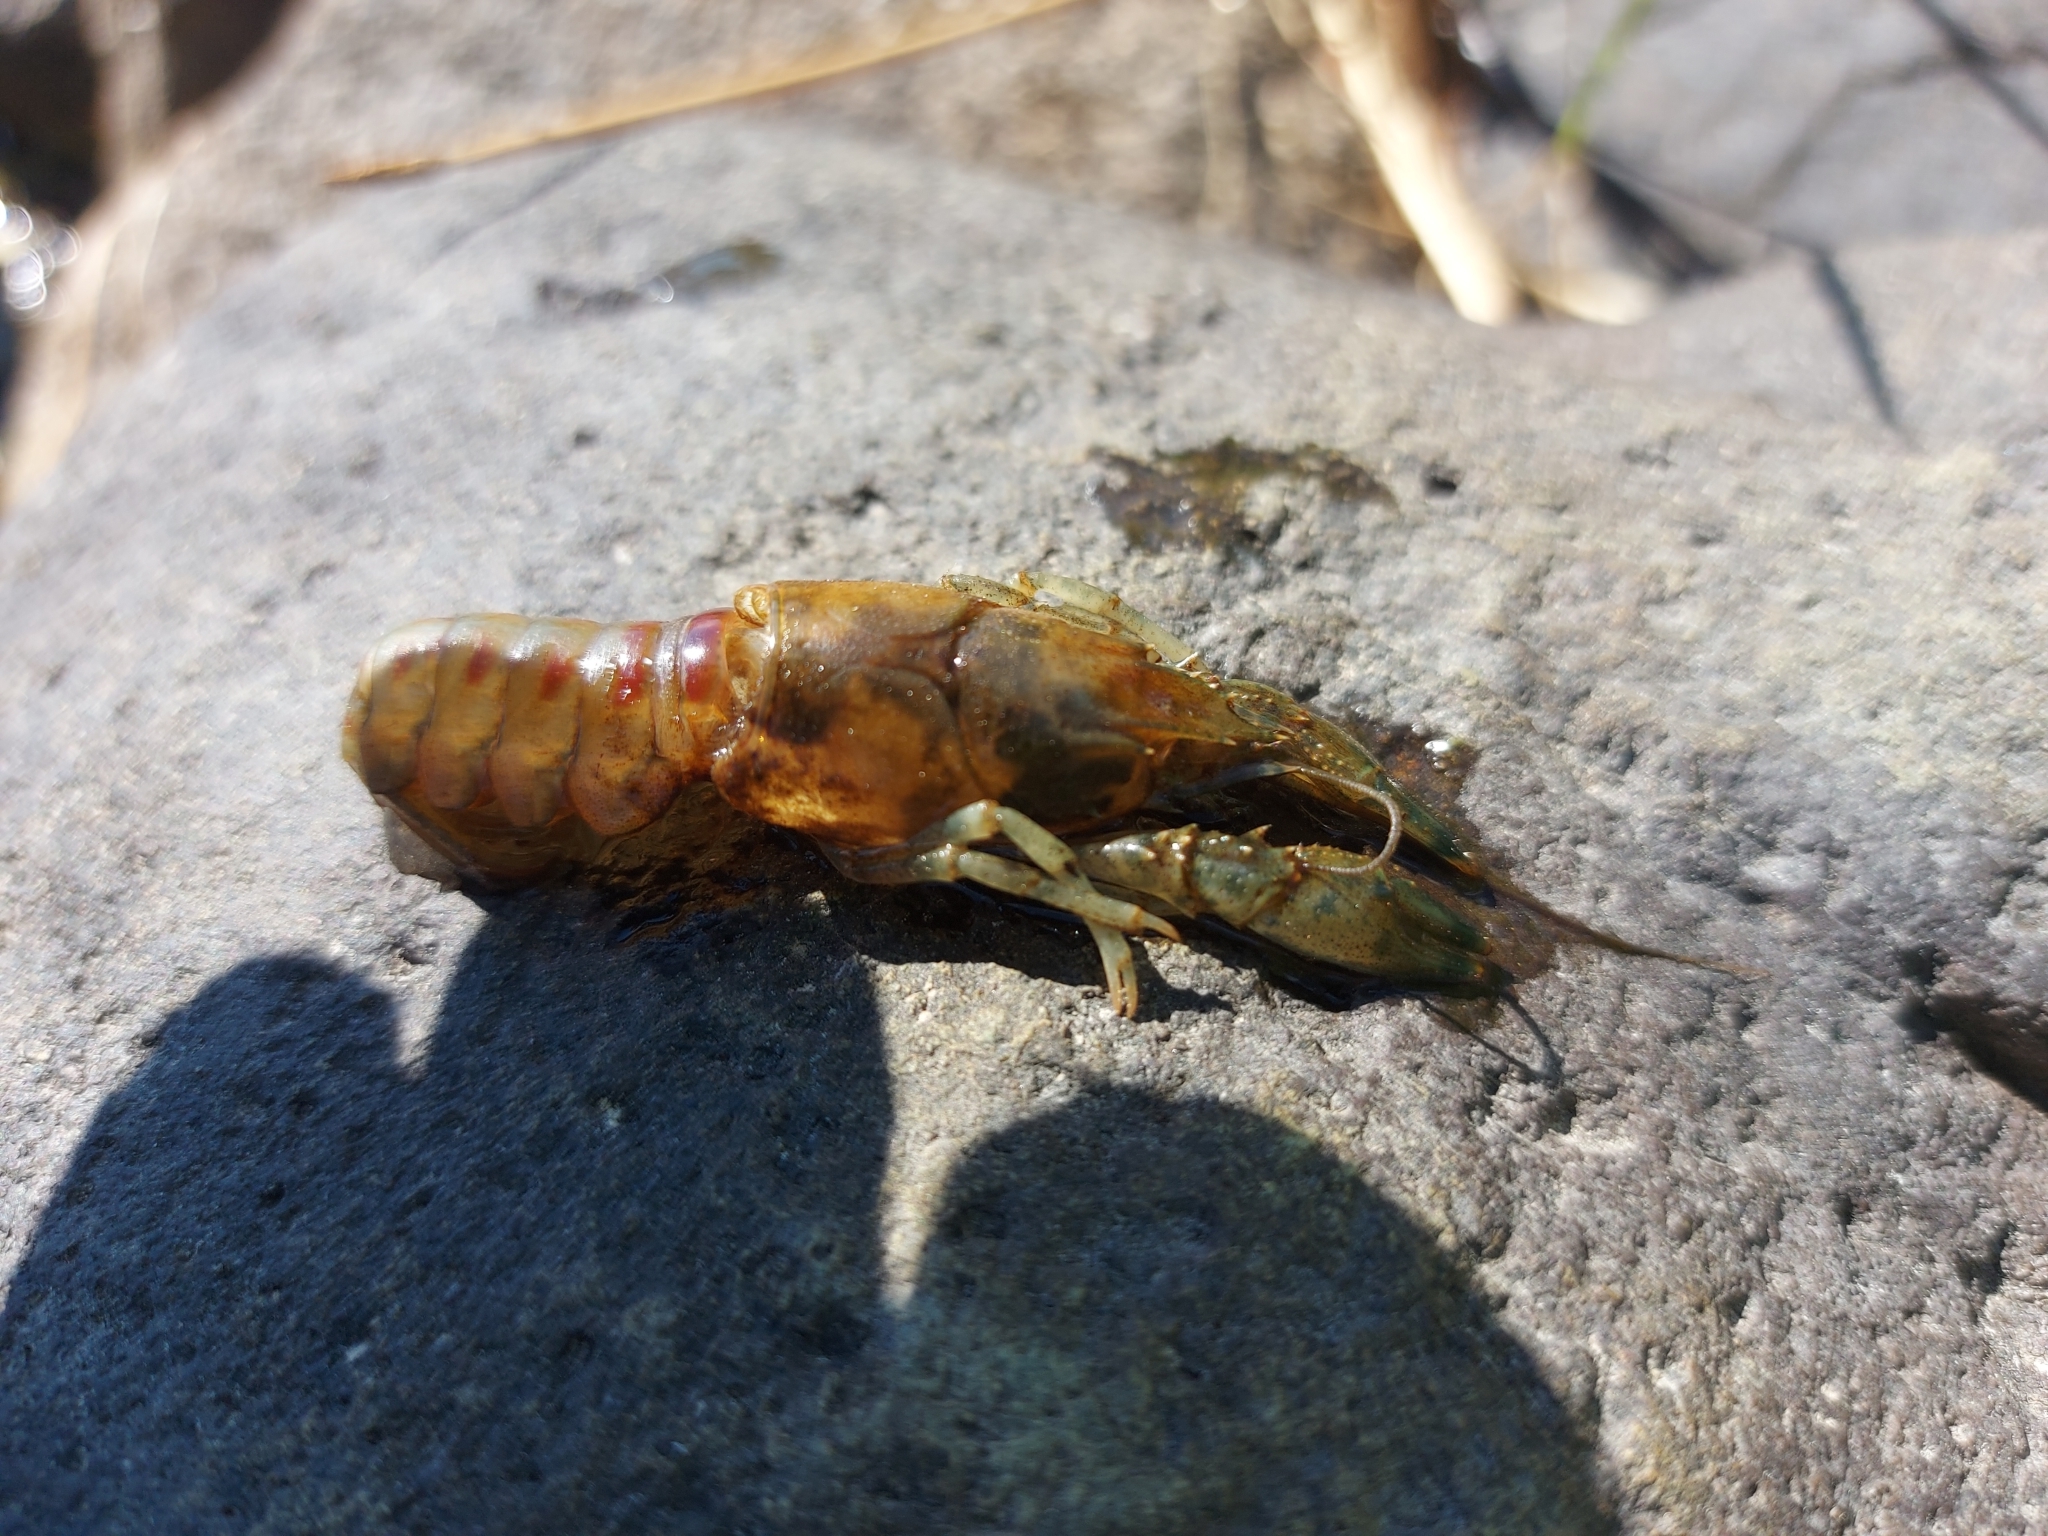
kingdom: Animalia
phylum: Arthropoda
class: Malacostraca
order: Decapoda
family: Cambaridae
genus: Faxonius
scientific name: Faxonius limosus
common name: American crayfish
